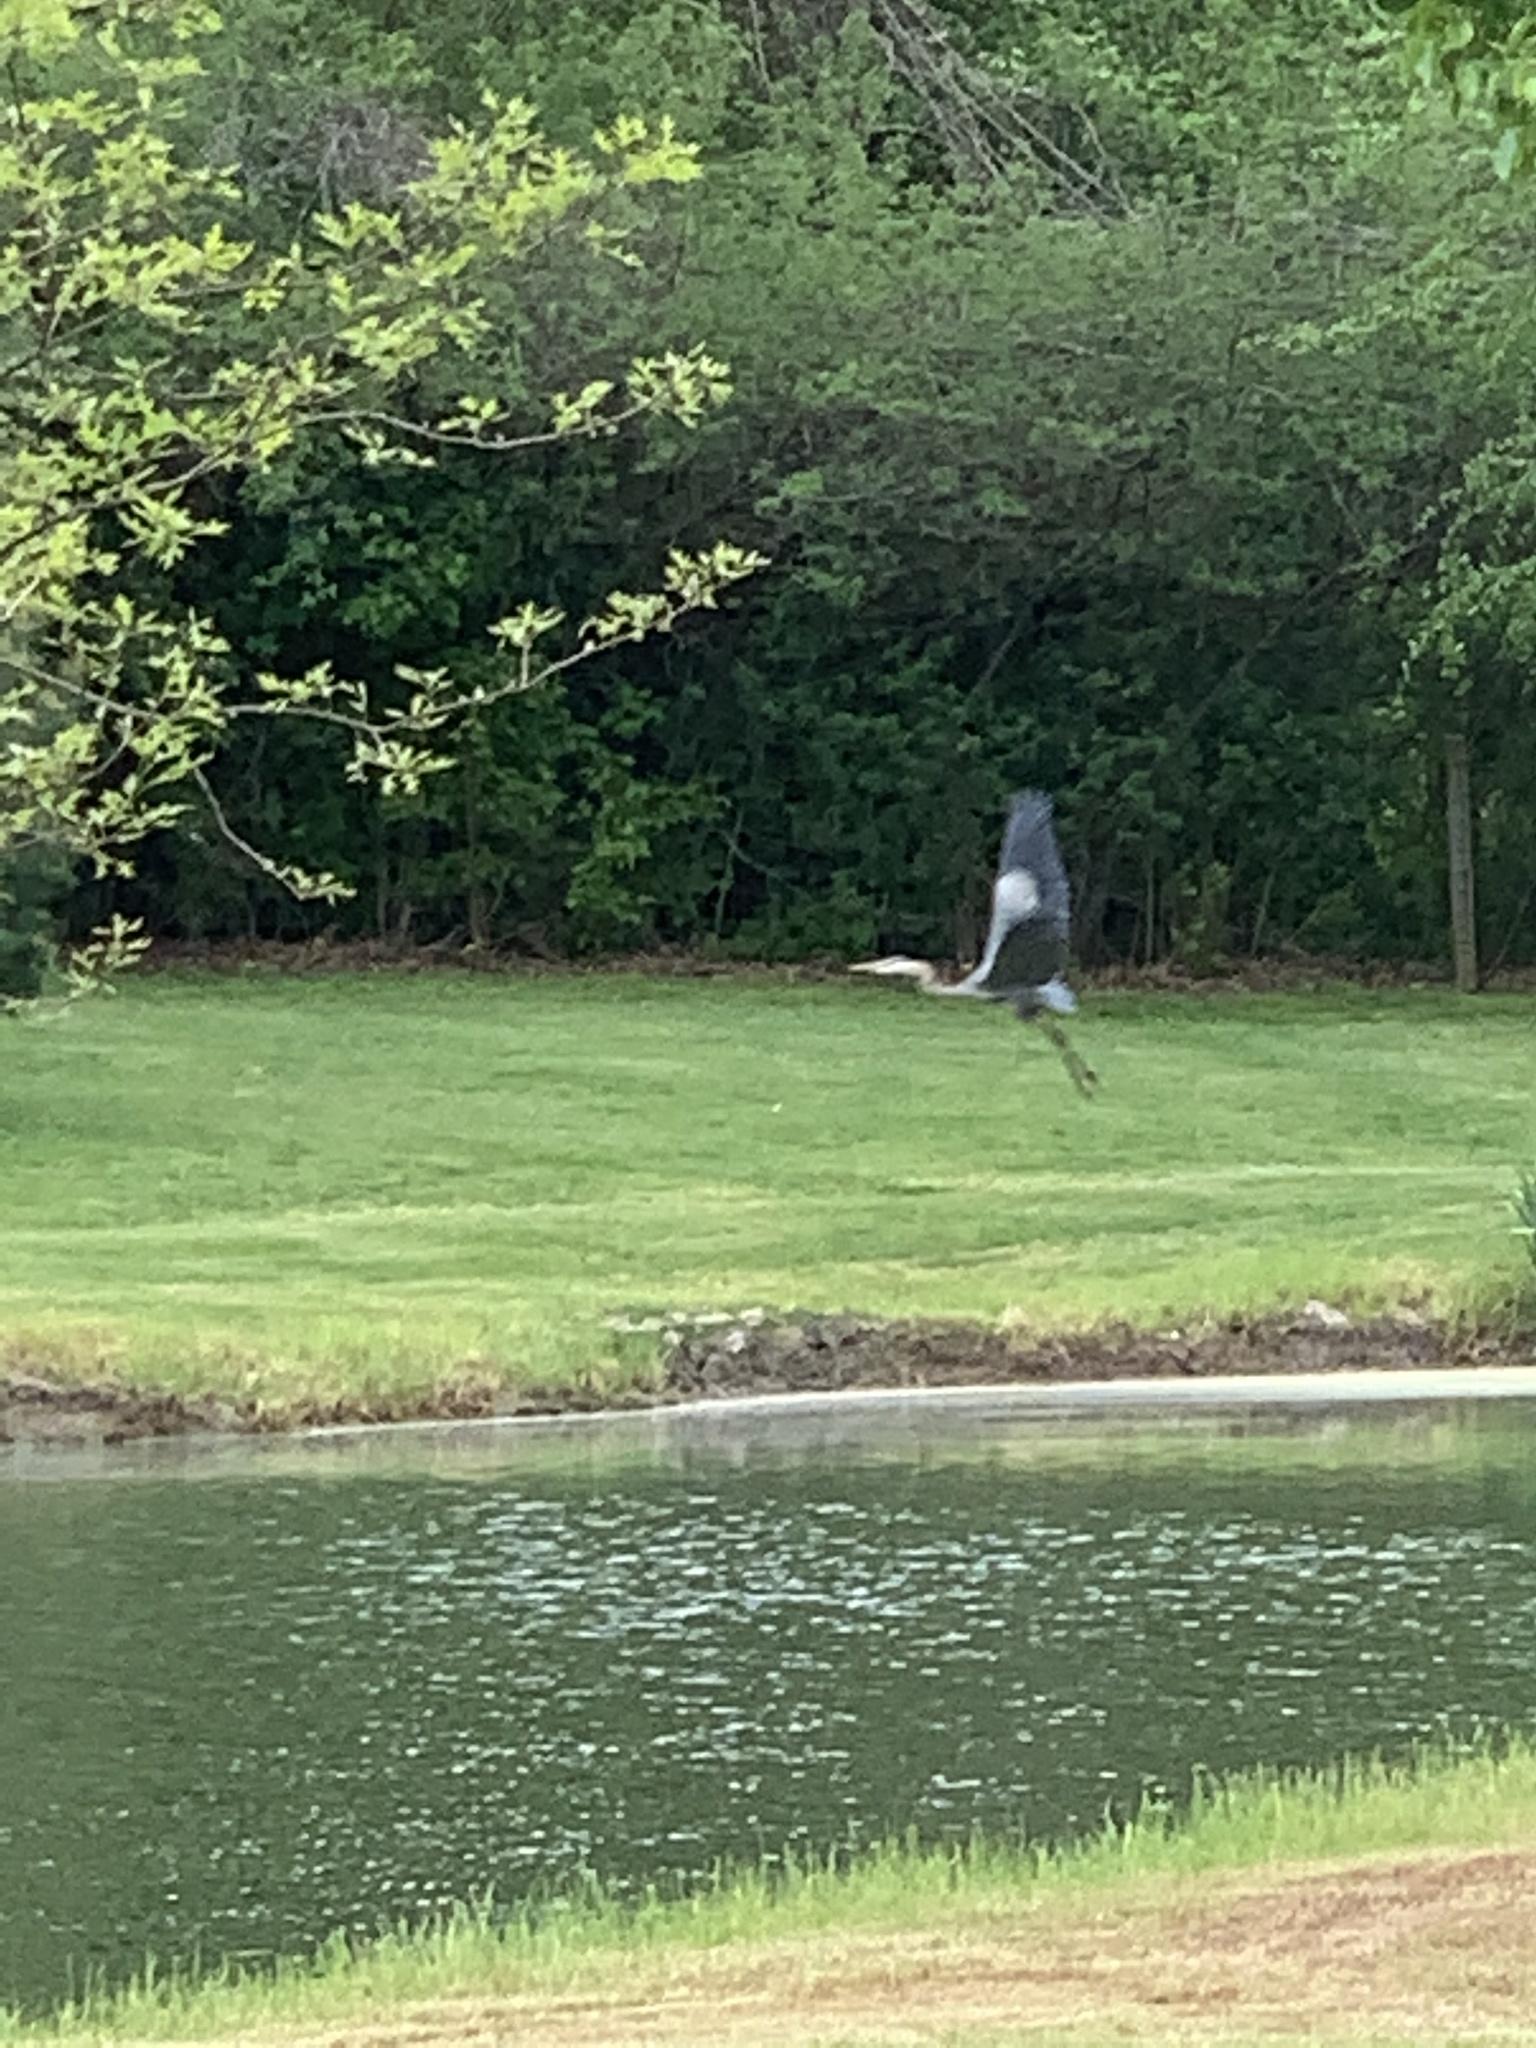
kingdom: Animalia
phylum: Chordata
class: Aves
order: Pelecaniformes
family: Ardeidae
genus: Ardea
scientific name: Ardea herodias
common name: Great blue heron
